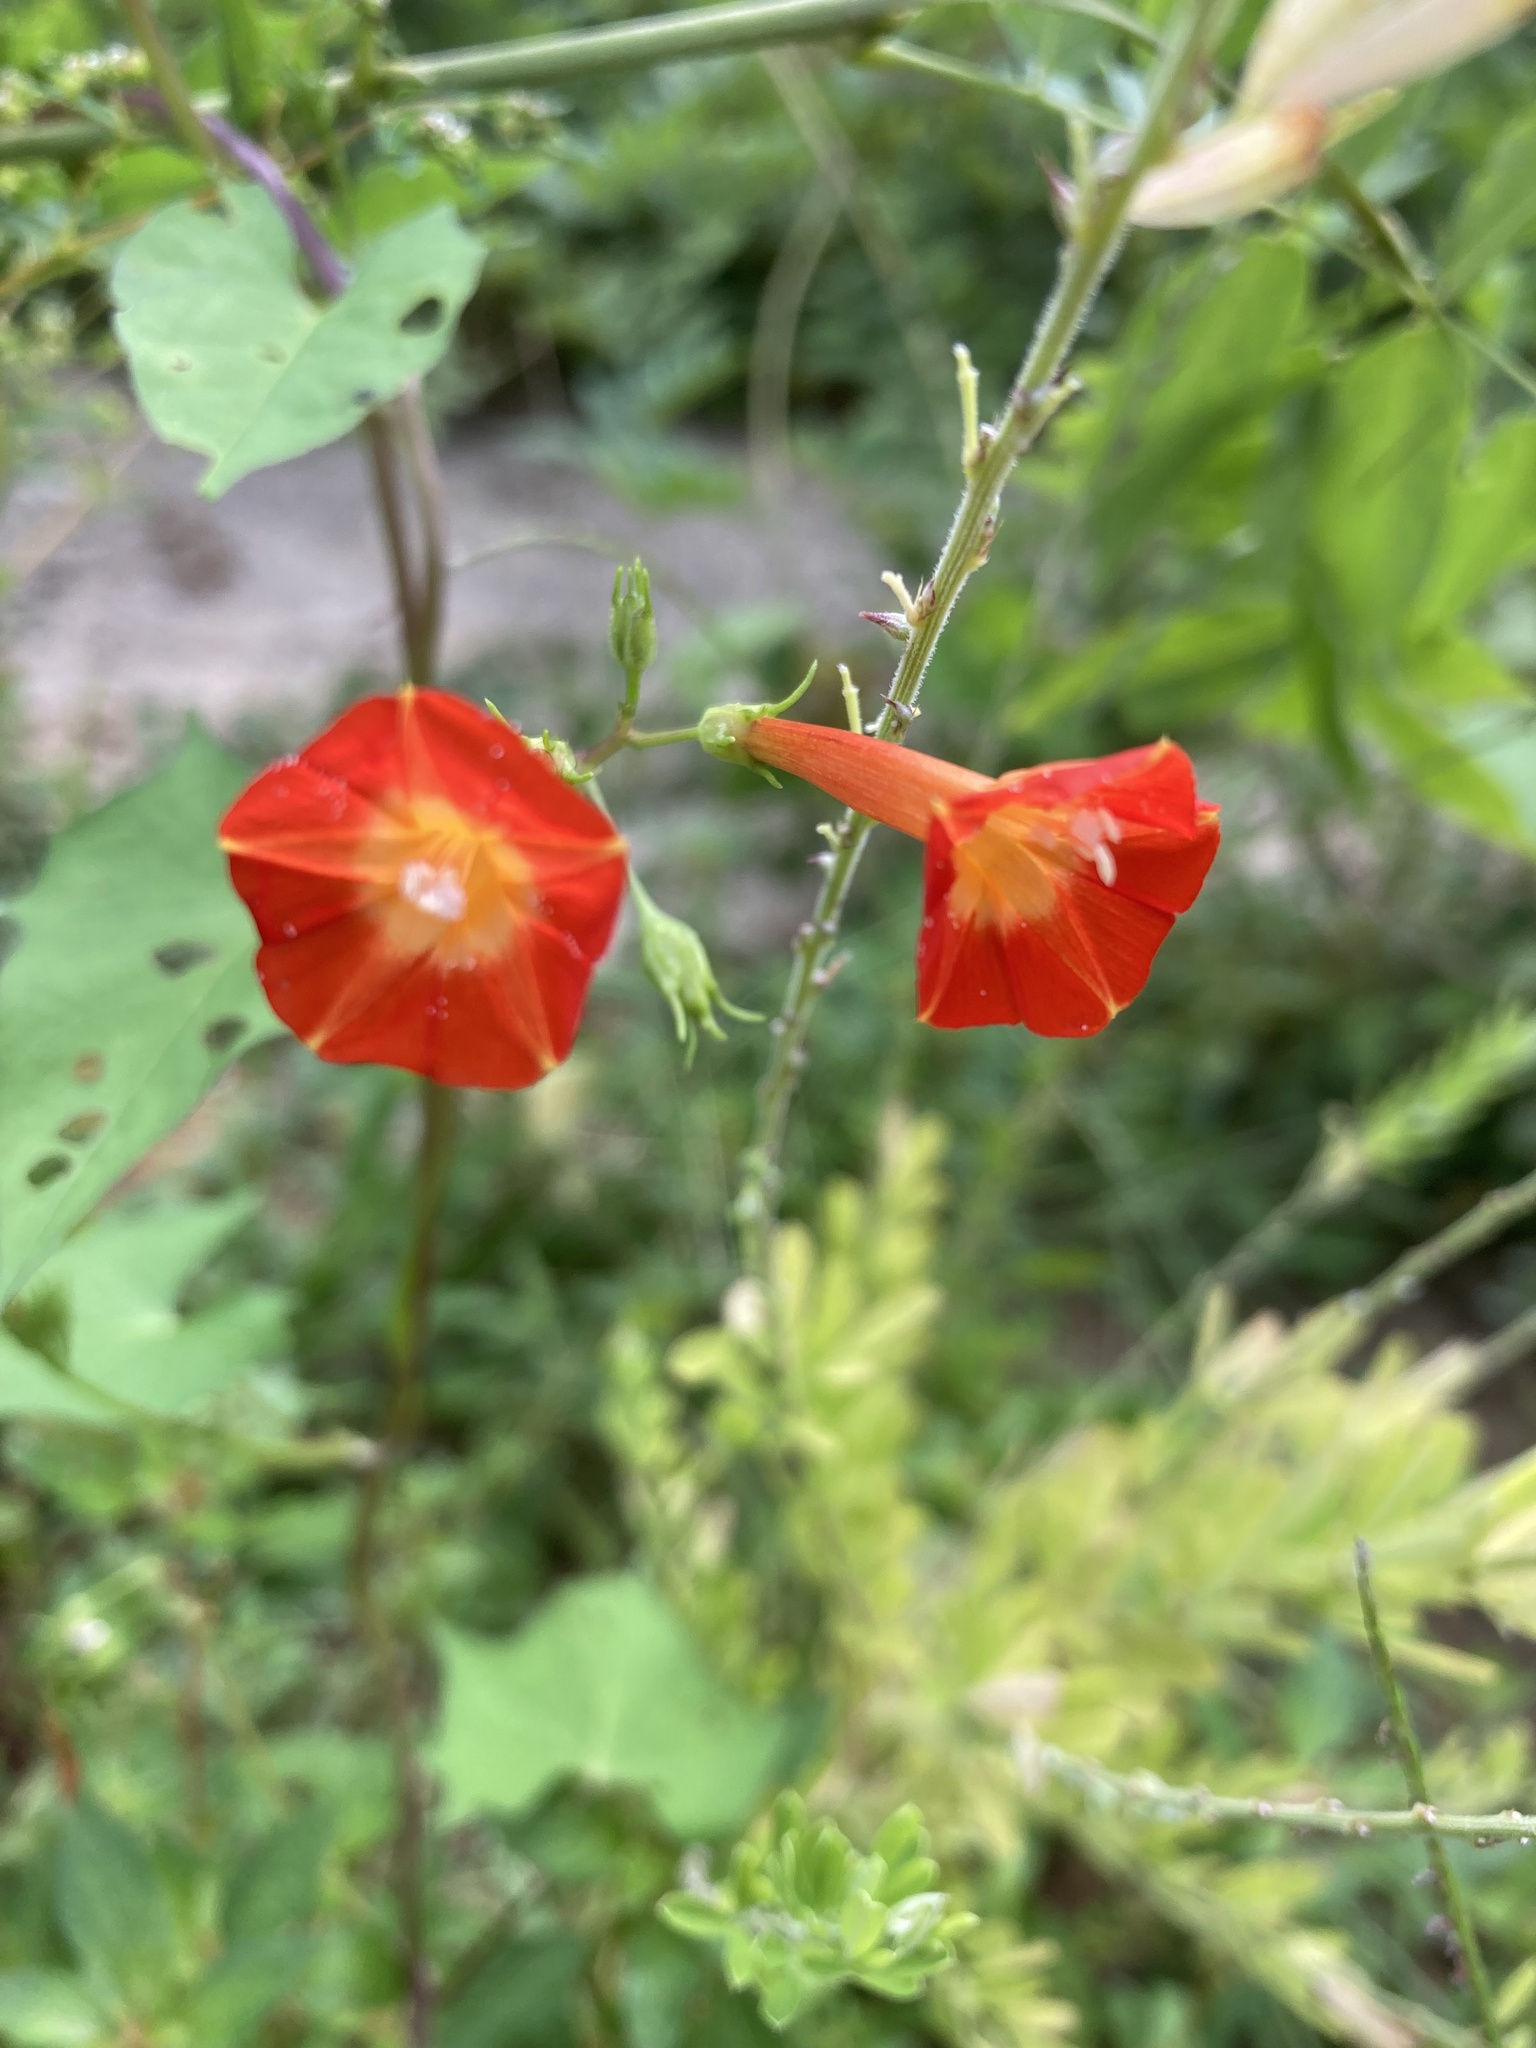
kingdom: Plantae
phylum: Tracheophyta
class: Magnoliopsida
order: Solanales
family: Convolvulaceae
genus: Ipomoea
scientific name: Ipomoea coccinea
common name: Red morning-glory
